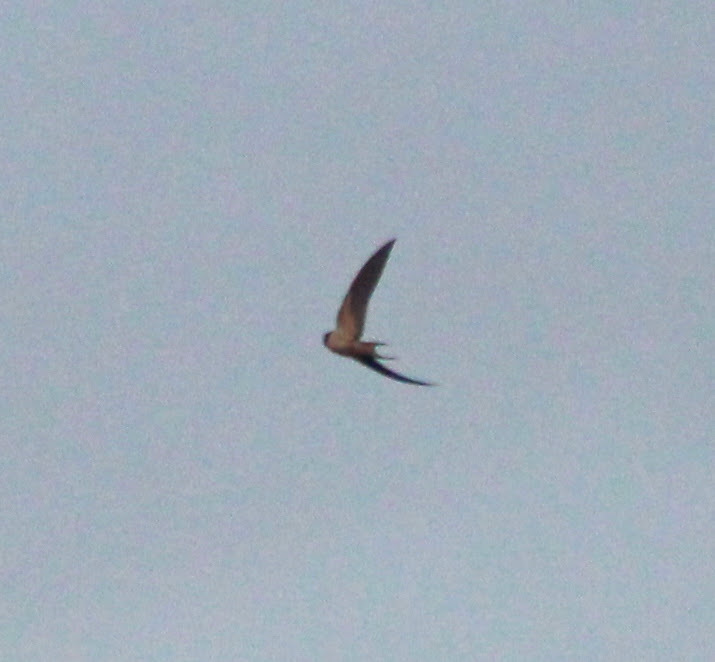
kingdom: Animalia
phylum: Chordata
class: Aves
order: Passeriformes
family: Hirundinidae
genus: Hirundo
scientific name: Hirundo rustica
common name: Barn swallow
